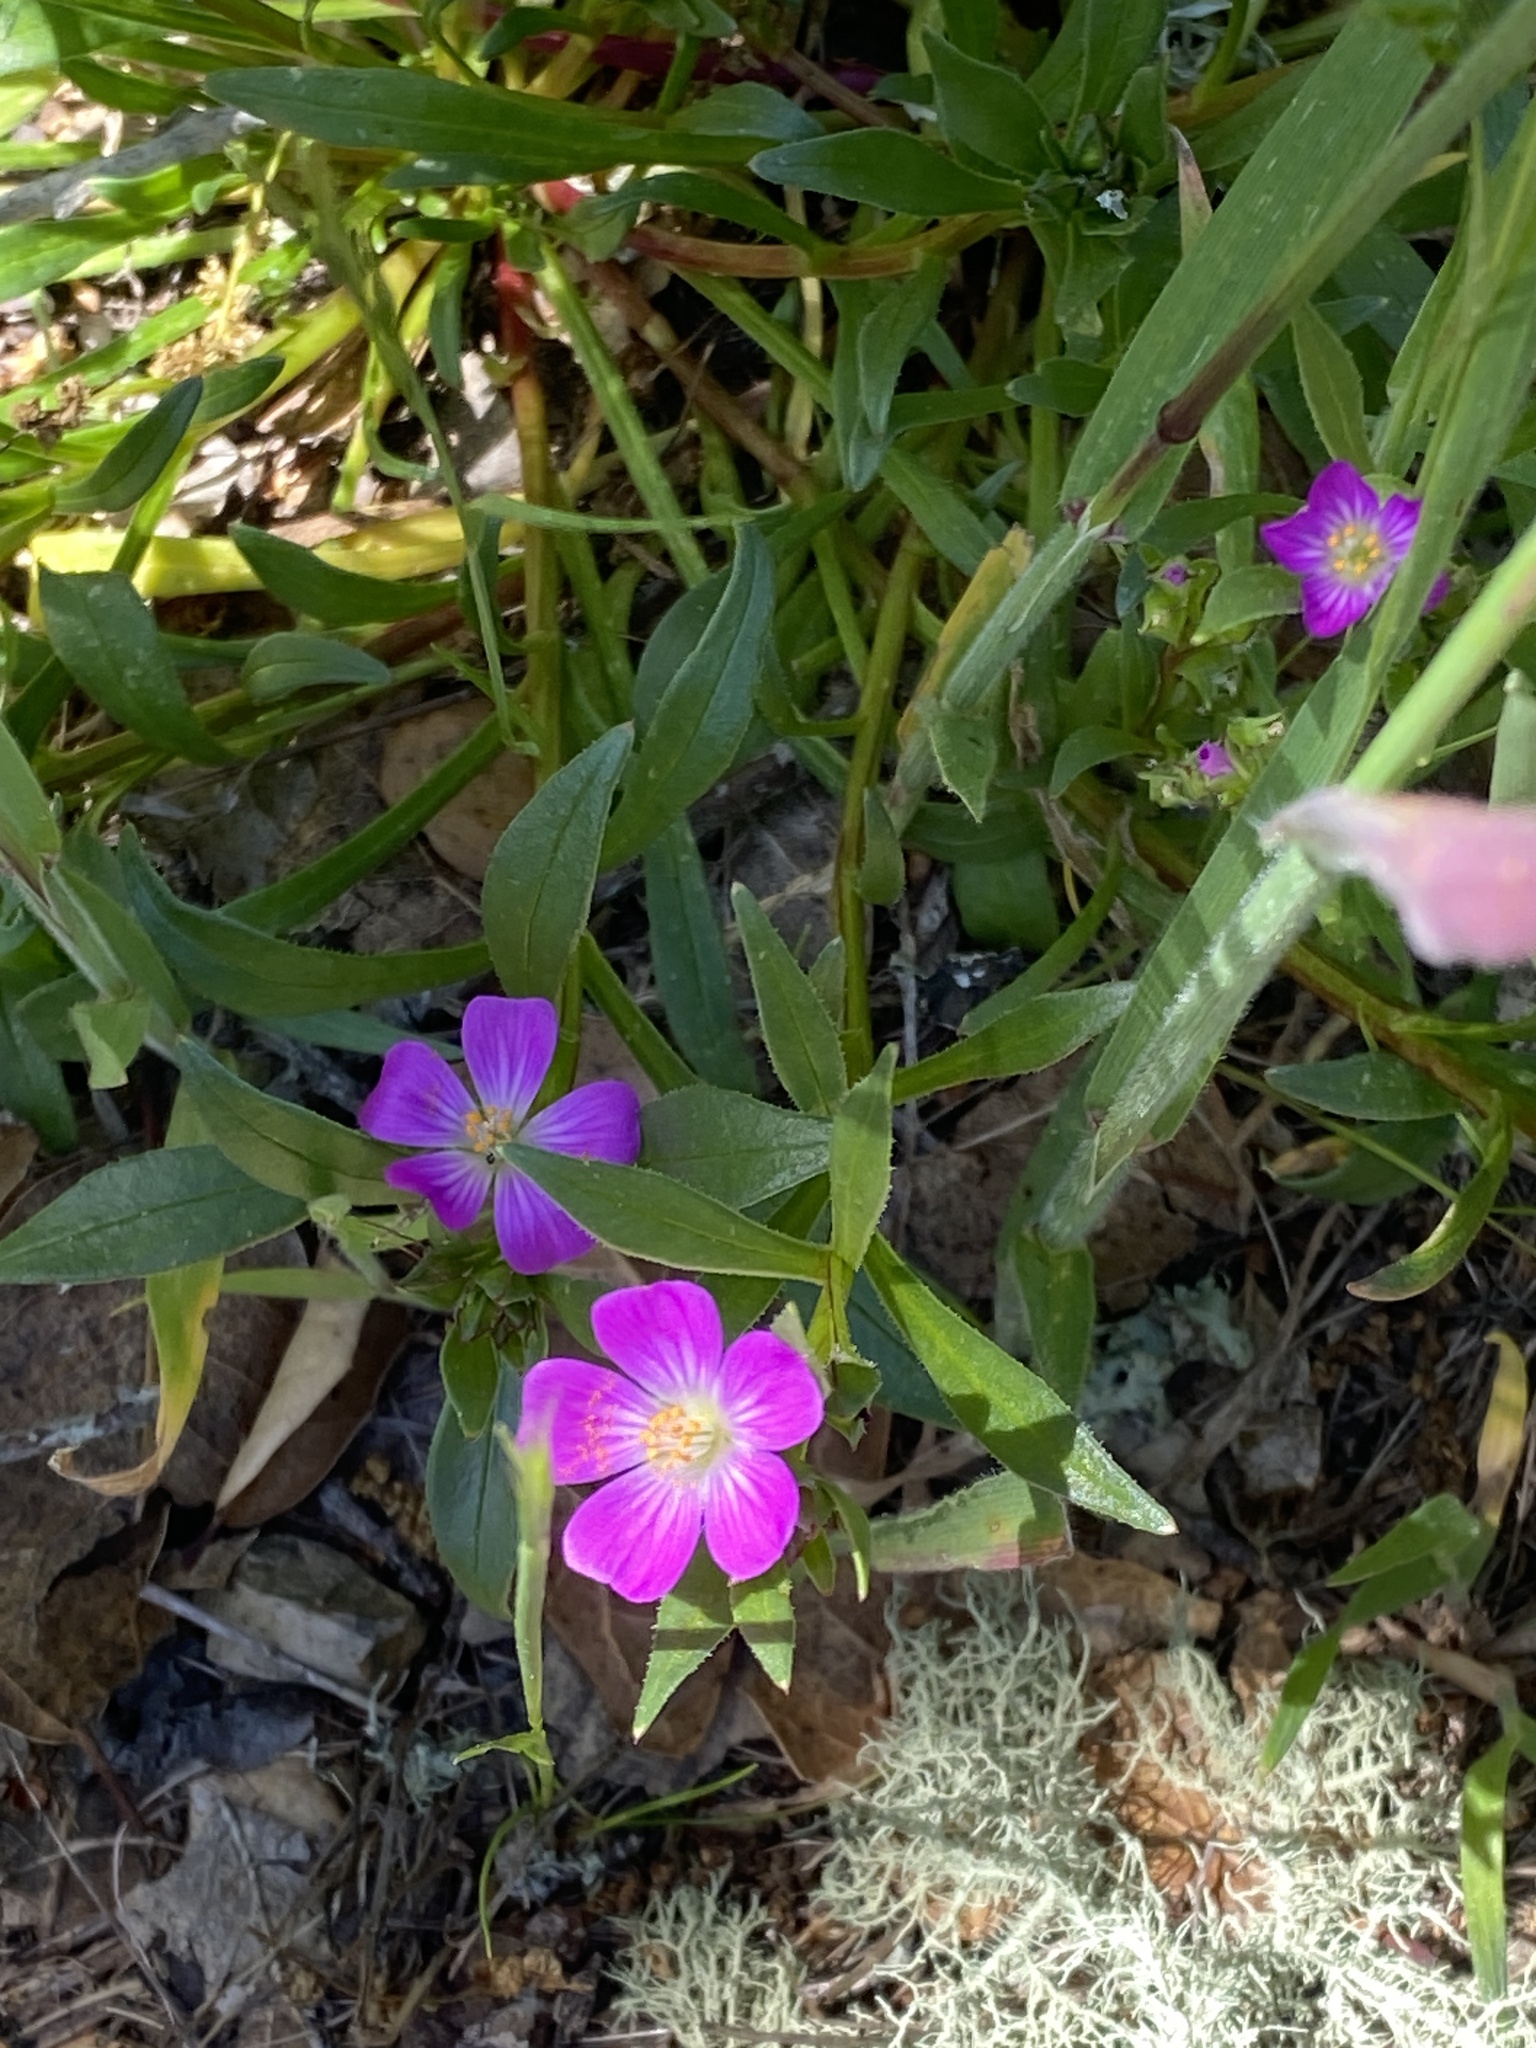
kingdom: Plantae
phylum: Tracheophyta
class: Magnoliopsida
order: Caryophyllales
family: Montiaceae
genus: Calandrinia
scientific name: Calandrinia menziesii
